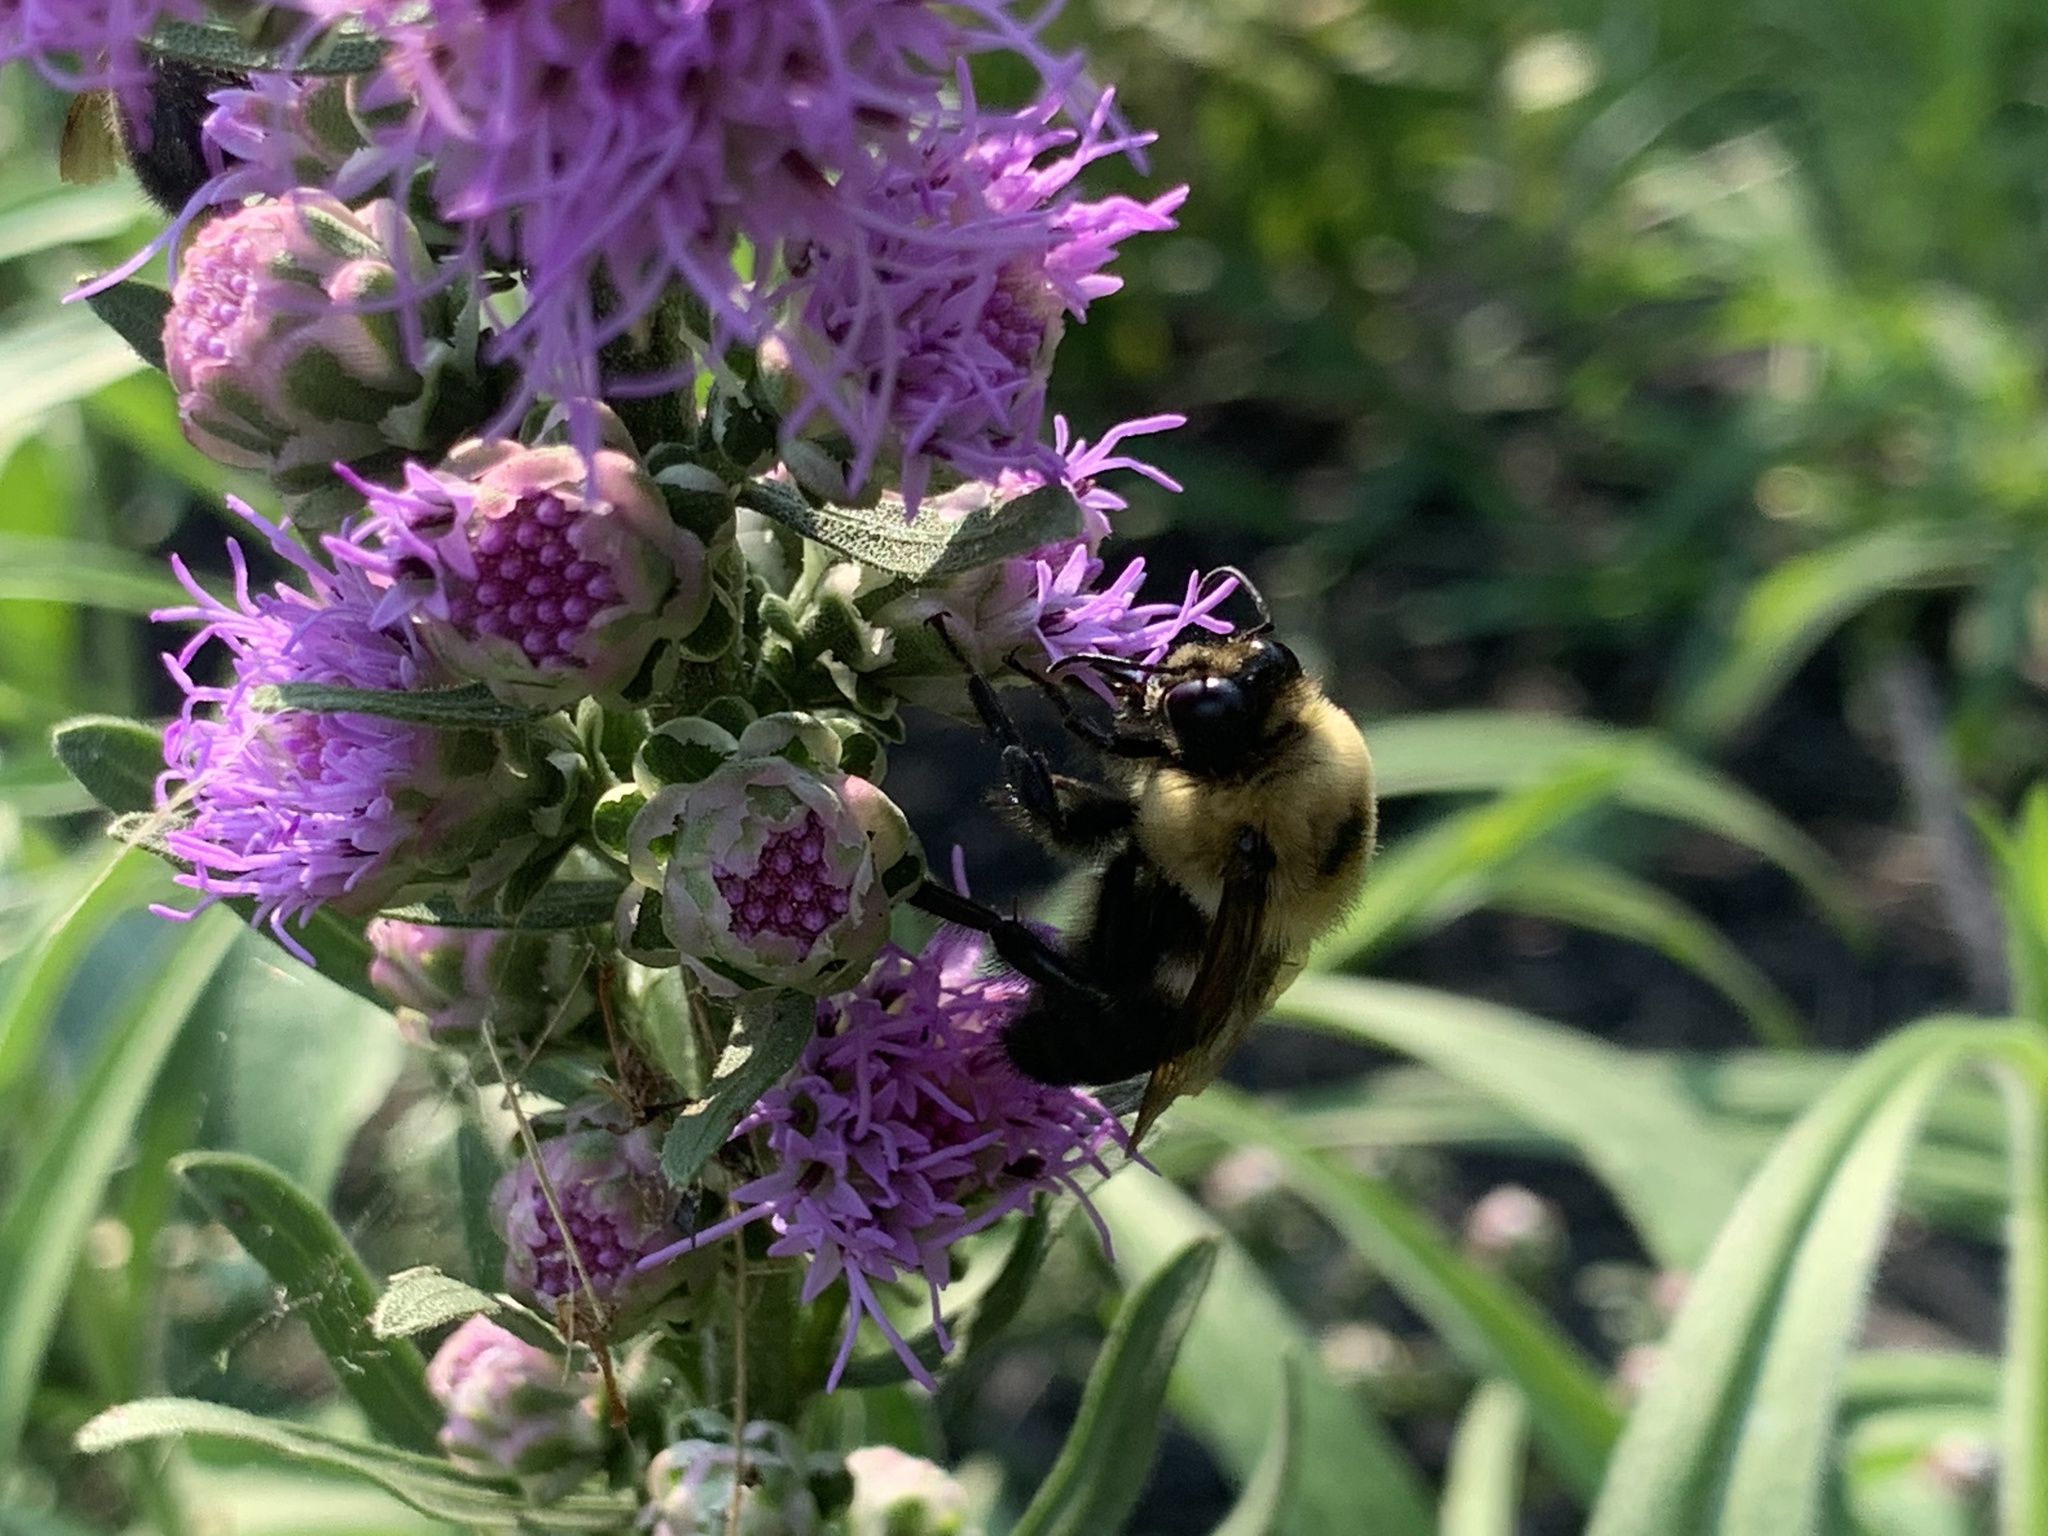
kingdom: Animalia
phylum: Arthropoda
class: Insecta
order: Hymenoptera
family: Apidae
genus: Bombus
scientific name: Bombus griseocollis
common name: Brown-belted bumble bee
